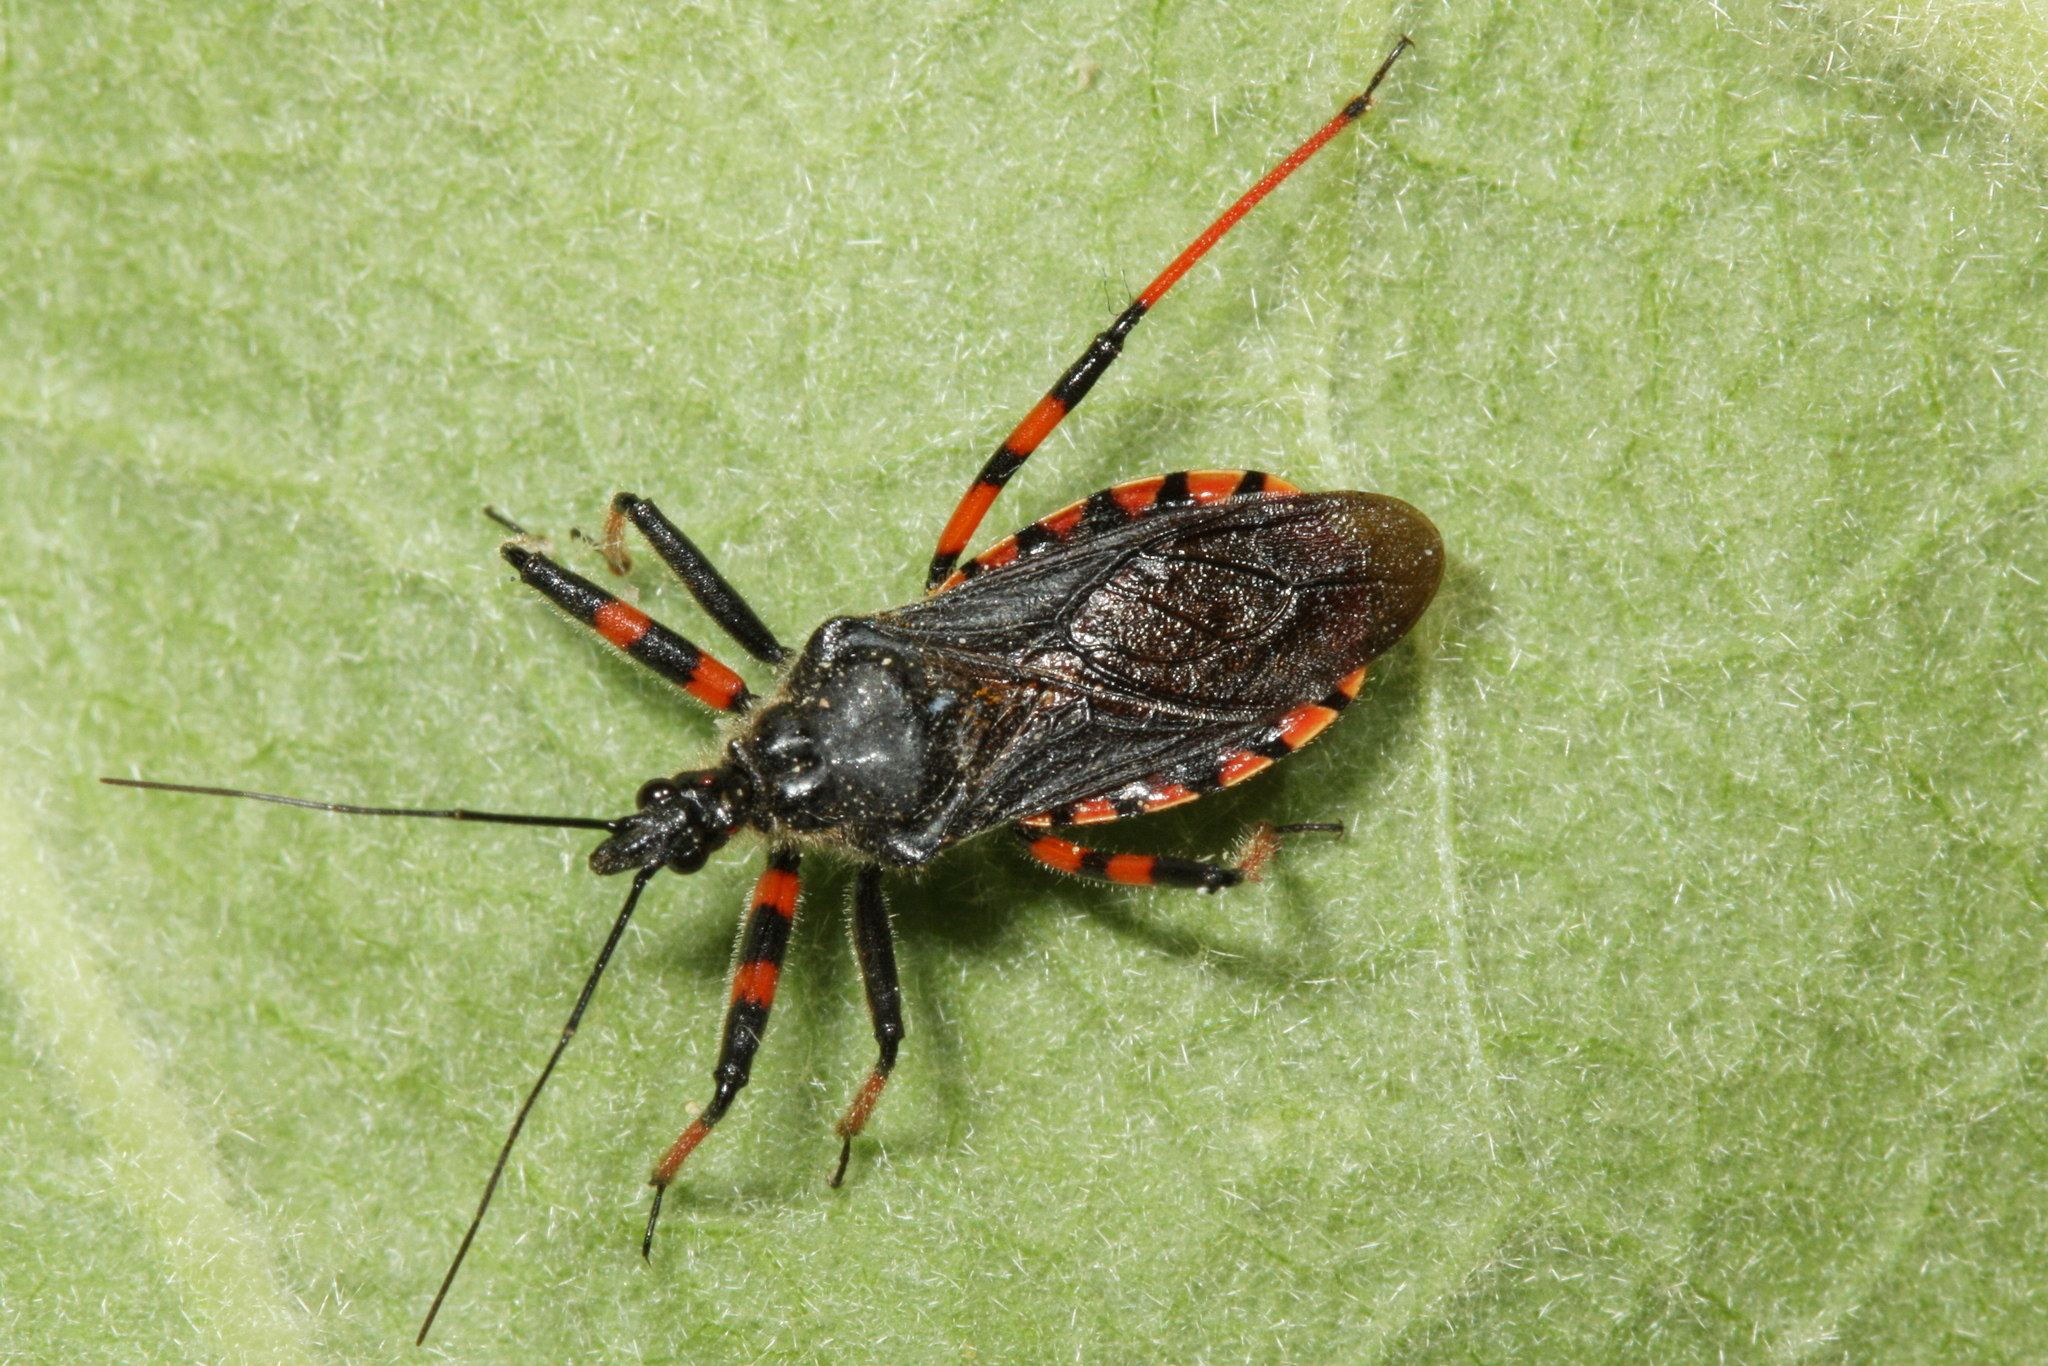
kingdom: Animalia
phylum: Arthropoda
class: Insecta
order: Hemiptera
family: Reduviidae
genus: Rhynocoris
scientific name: Rhynocoris annulatus
